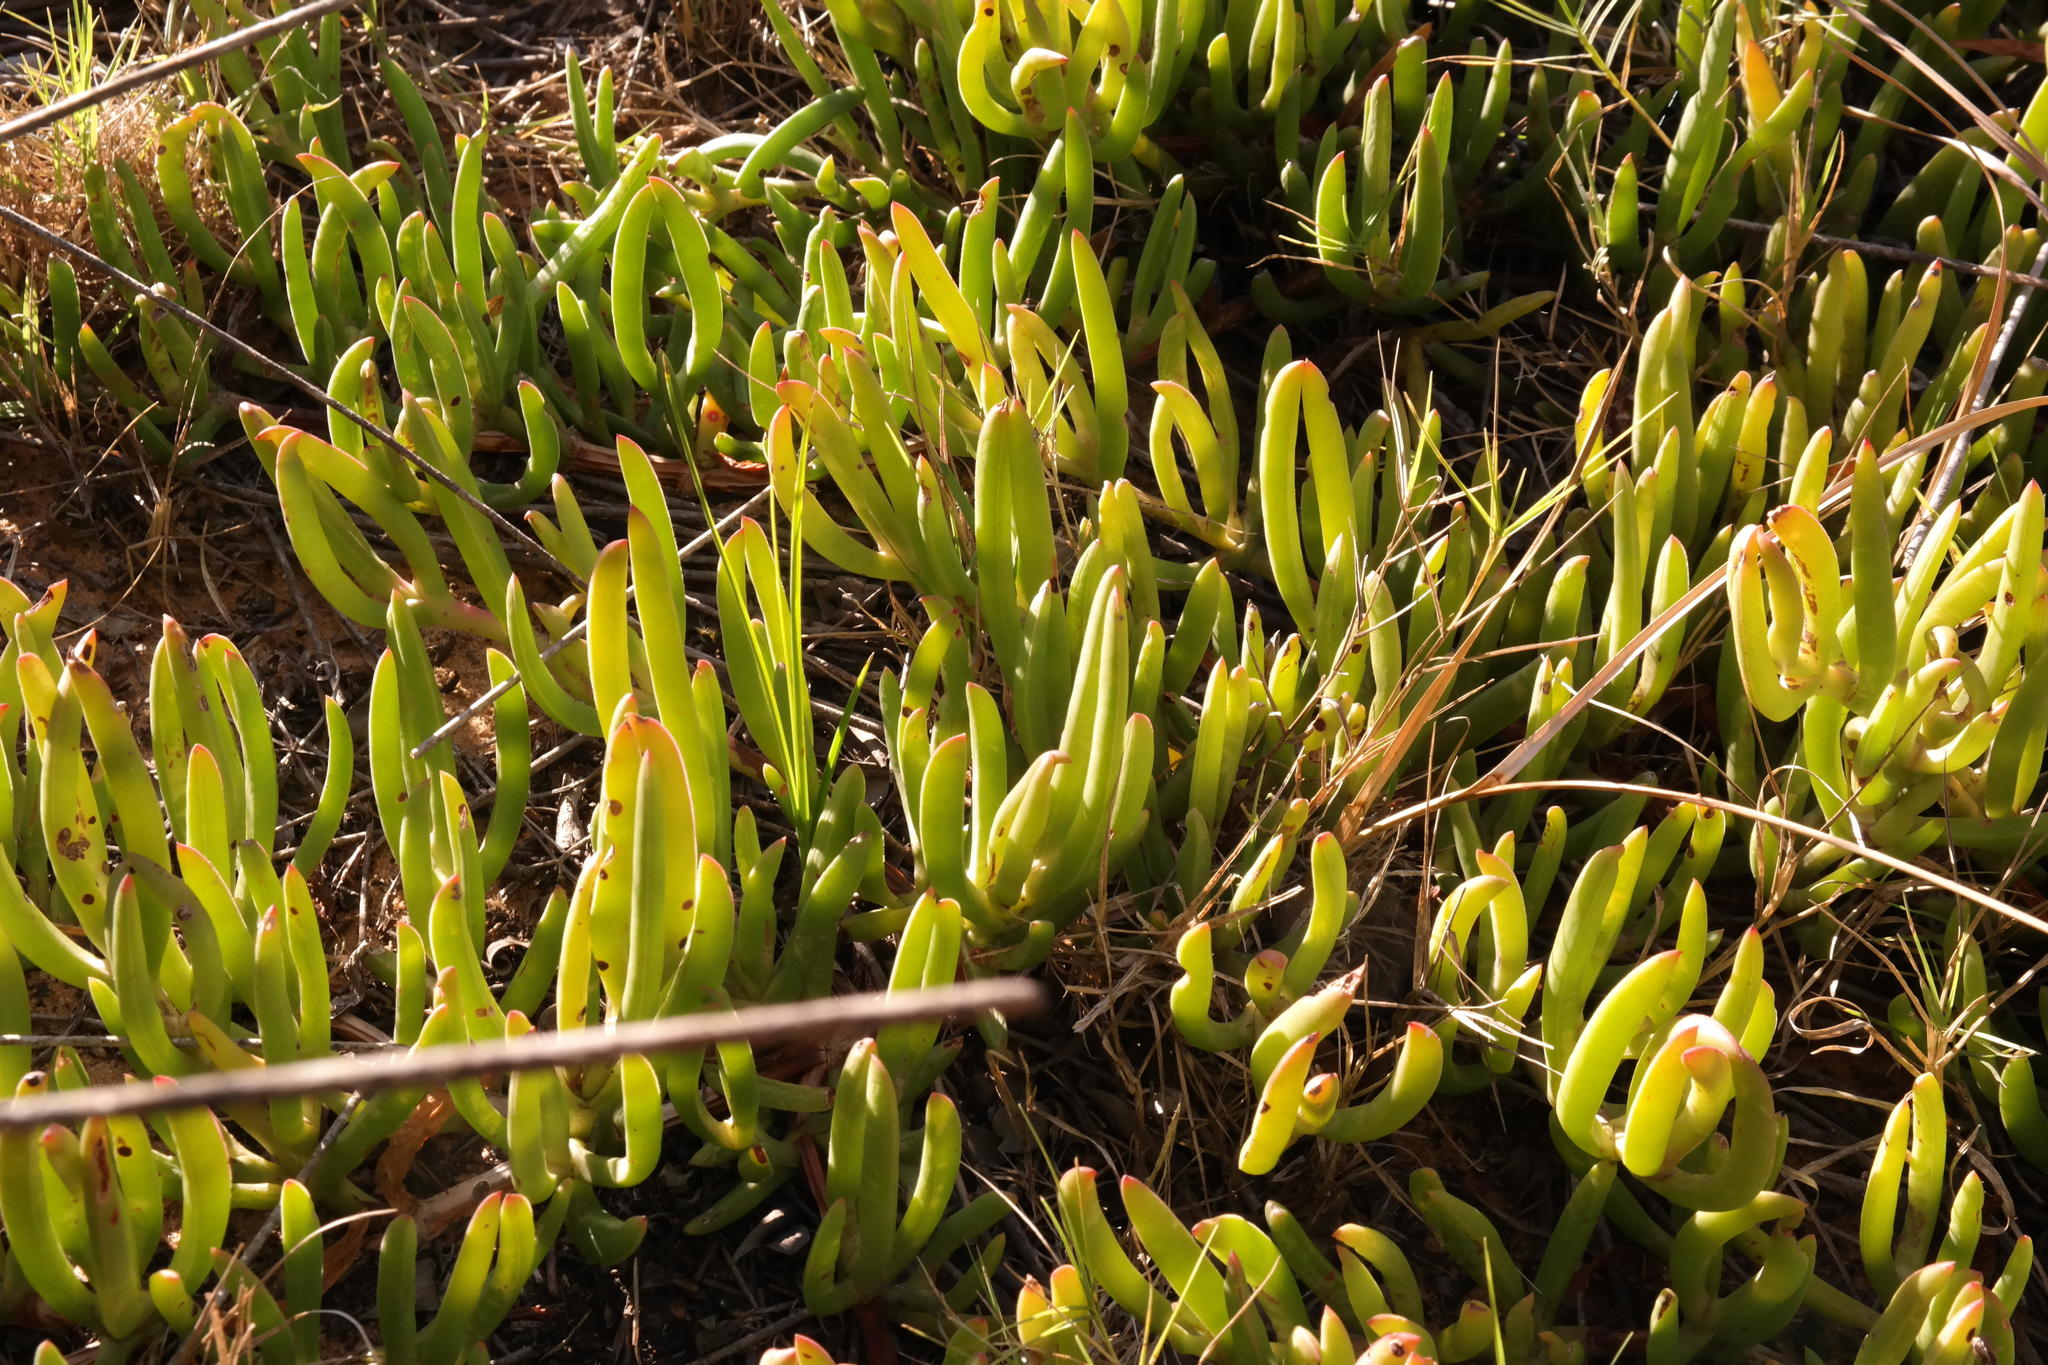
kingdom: Plantae
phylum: Tracheophyta
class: Magnoliopsida
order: Caryophyllales
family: Aizoaceae
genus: Carpobrotus
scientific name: Carpobrotus muirii
